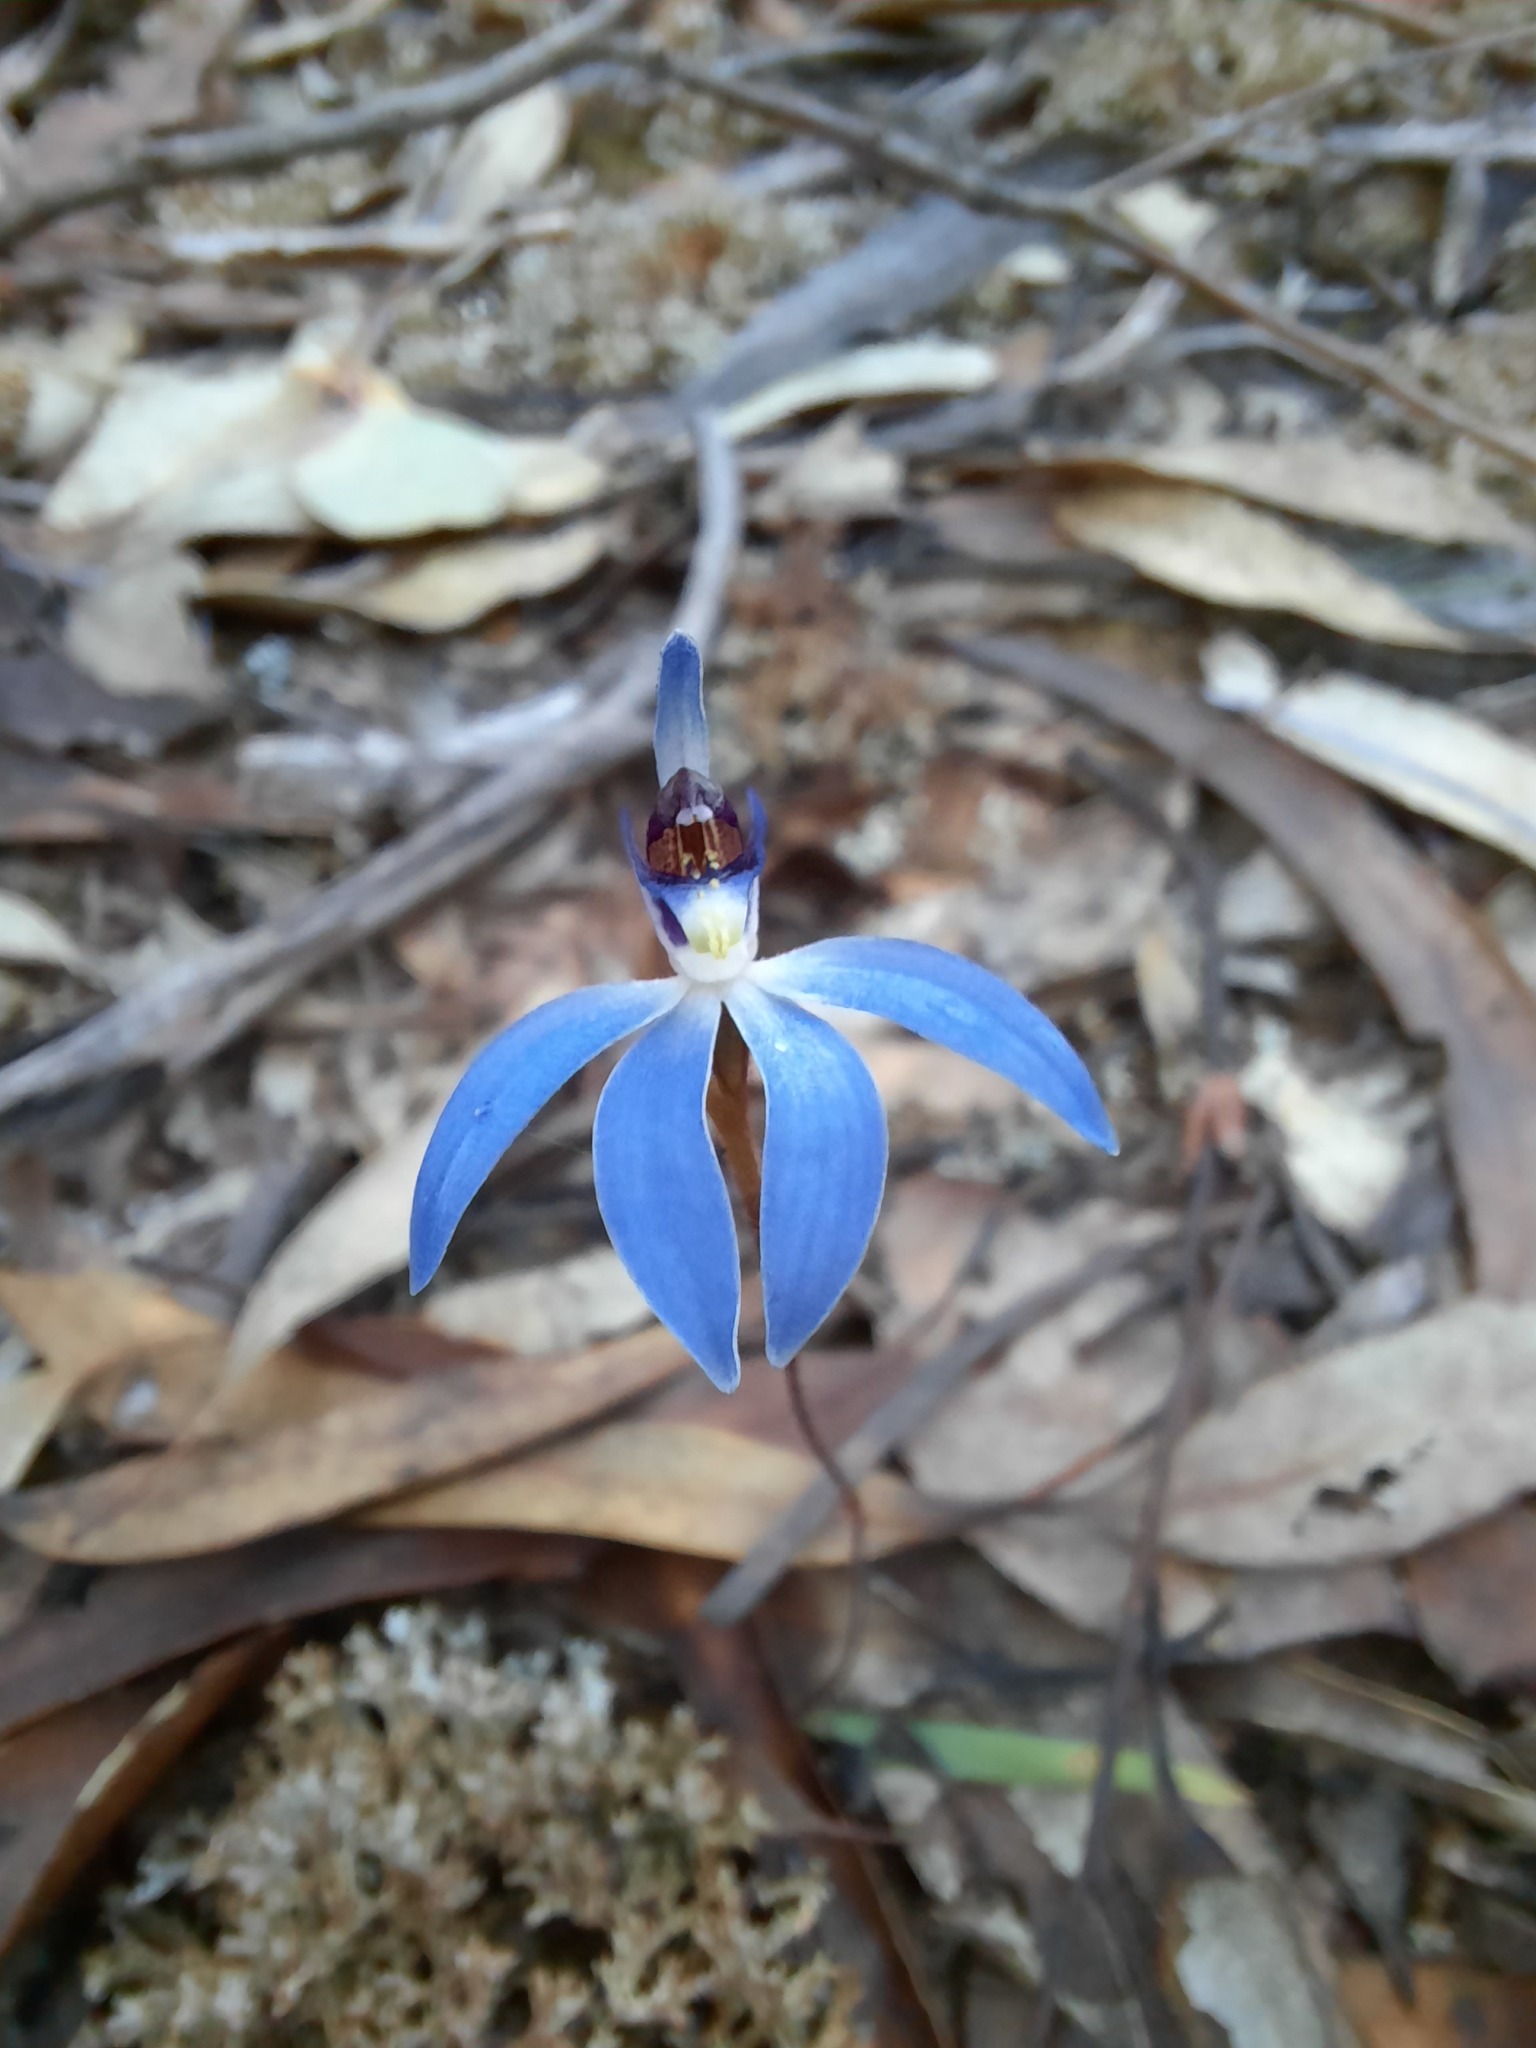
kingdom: Plantae
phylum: Tracheophyta
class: Liliopsida
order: Asparagales
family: Orchidaceae
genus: Caladenia
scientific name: Caladenia caerulea
